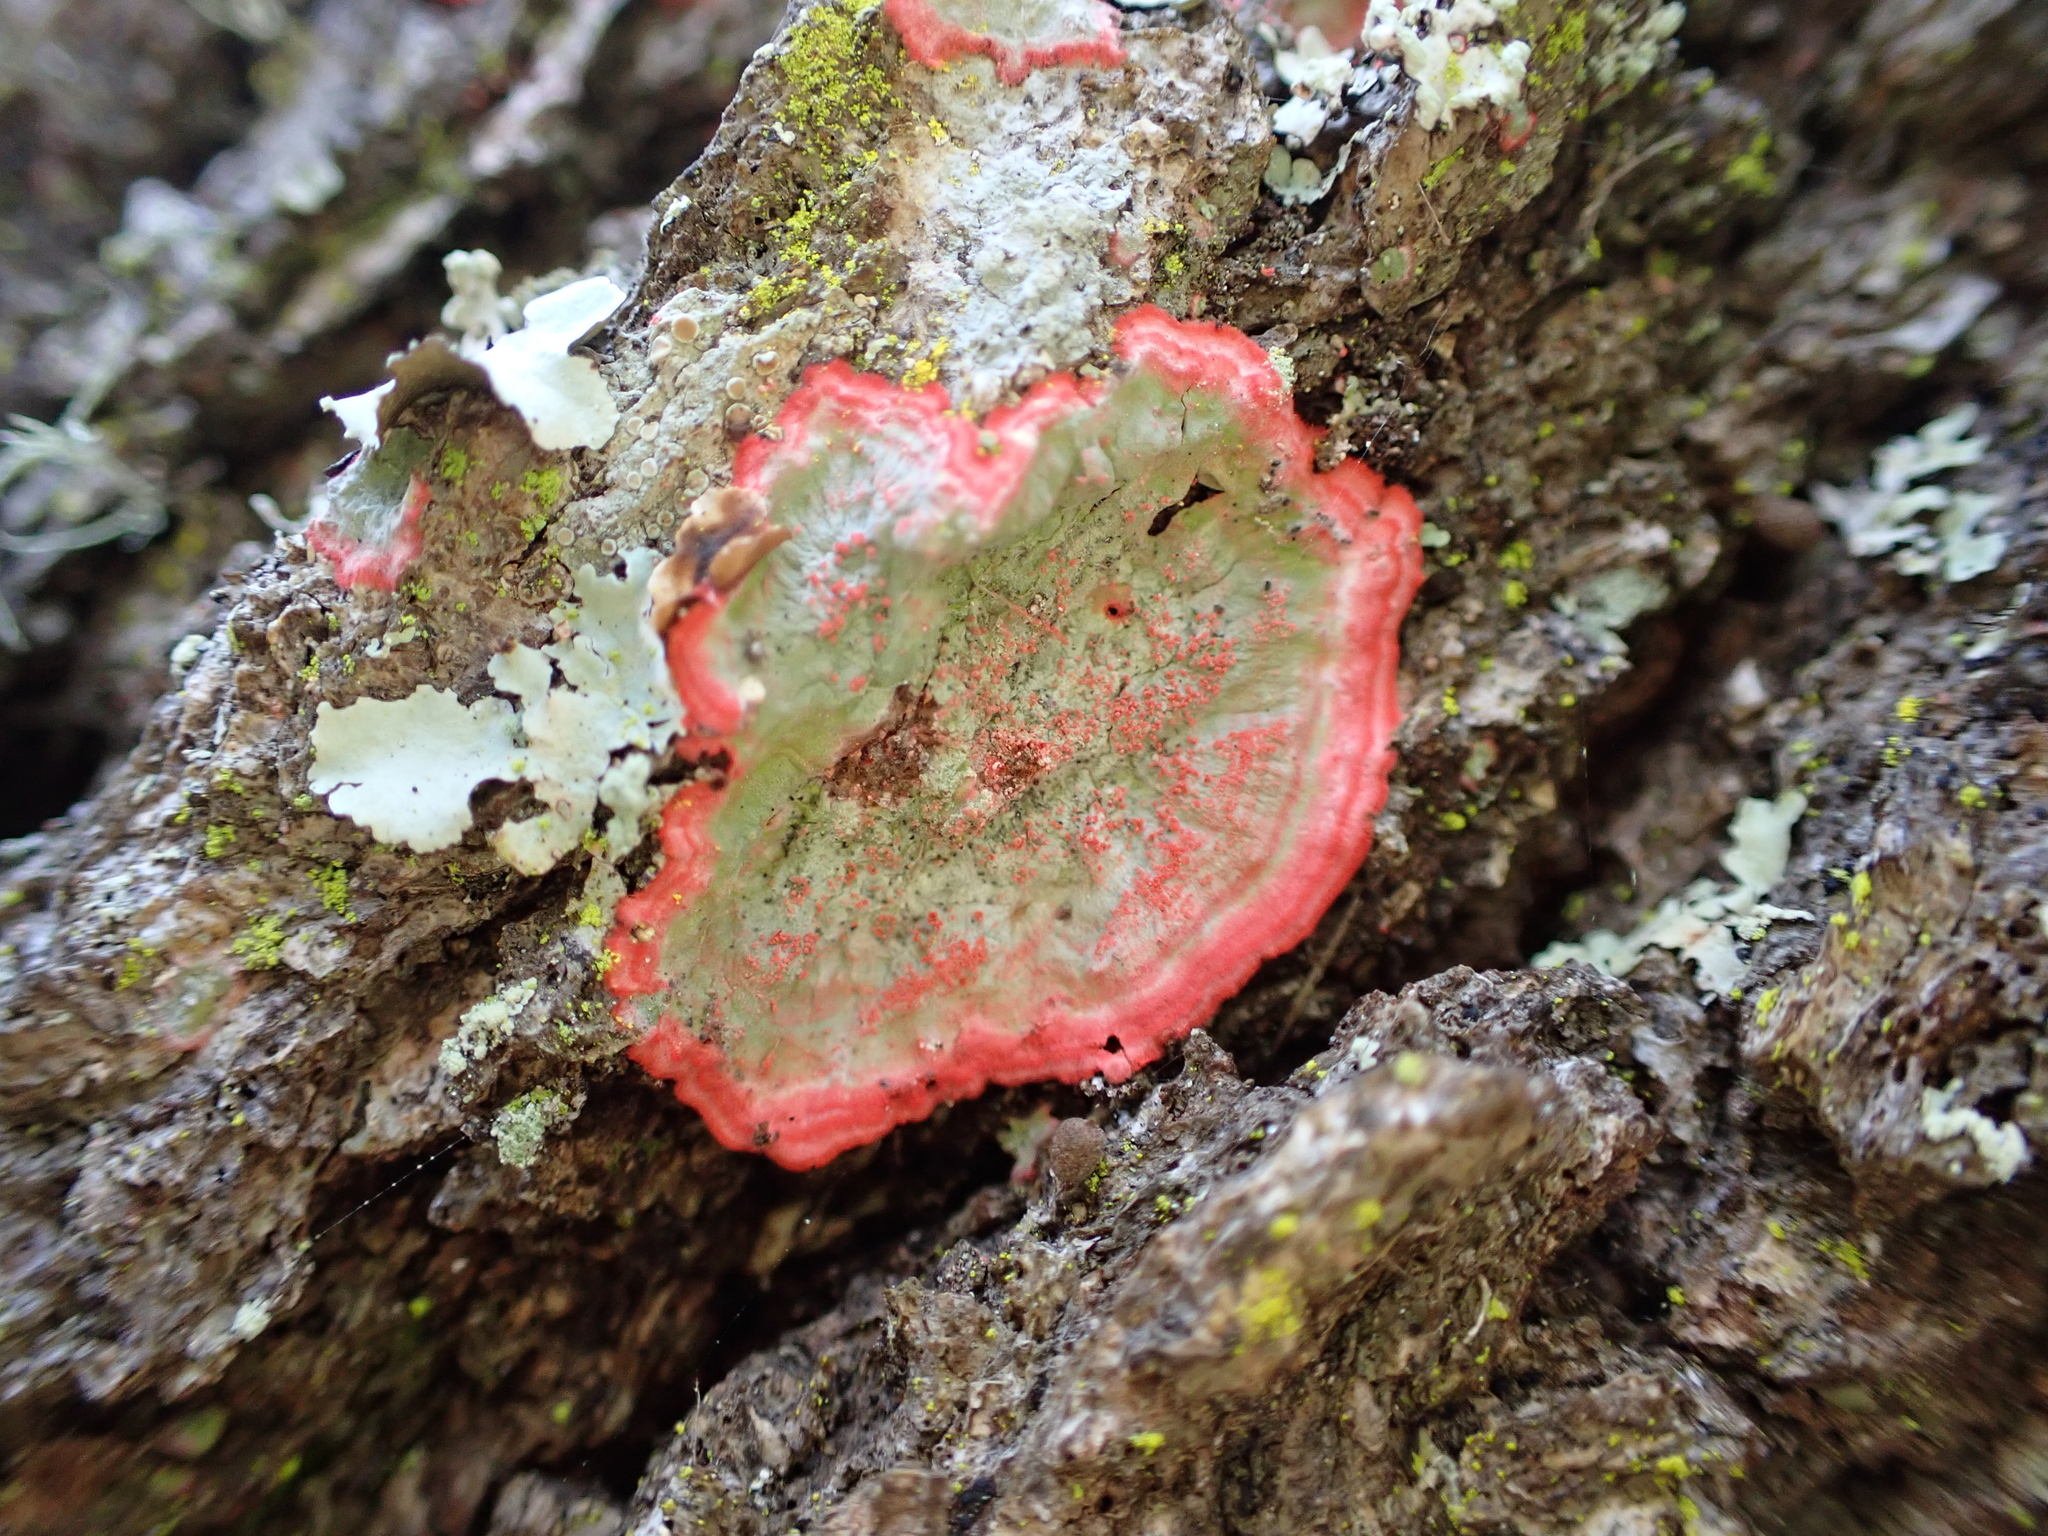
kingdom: Fungi
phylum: Ascomycota
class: Arthoniomycetes
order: Arthoniales
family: Arthoniaceae
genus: Herpothallon
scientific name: Herpothallon rubrocinctum
